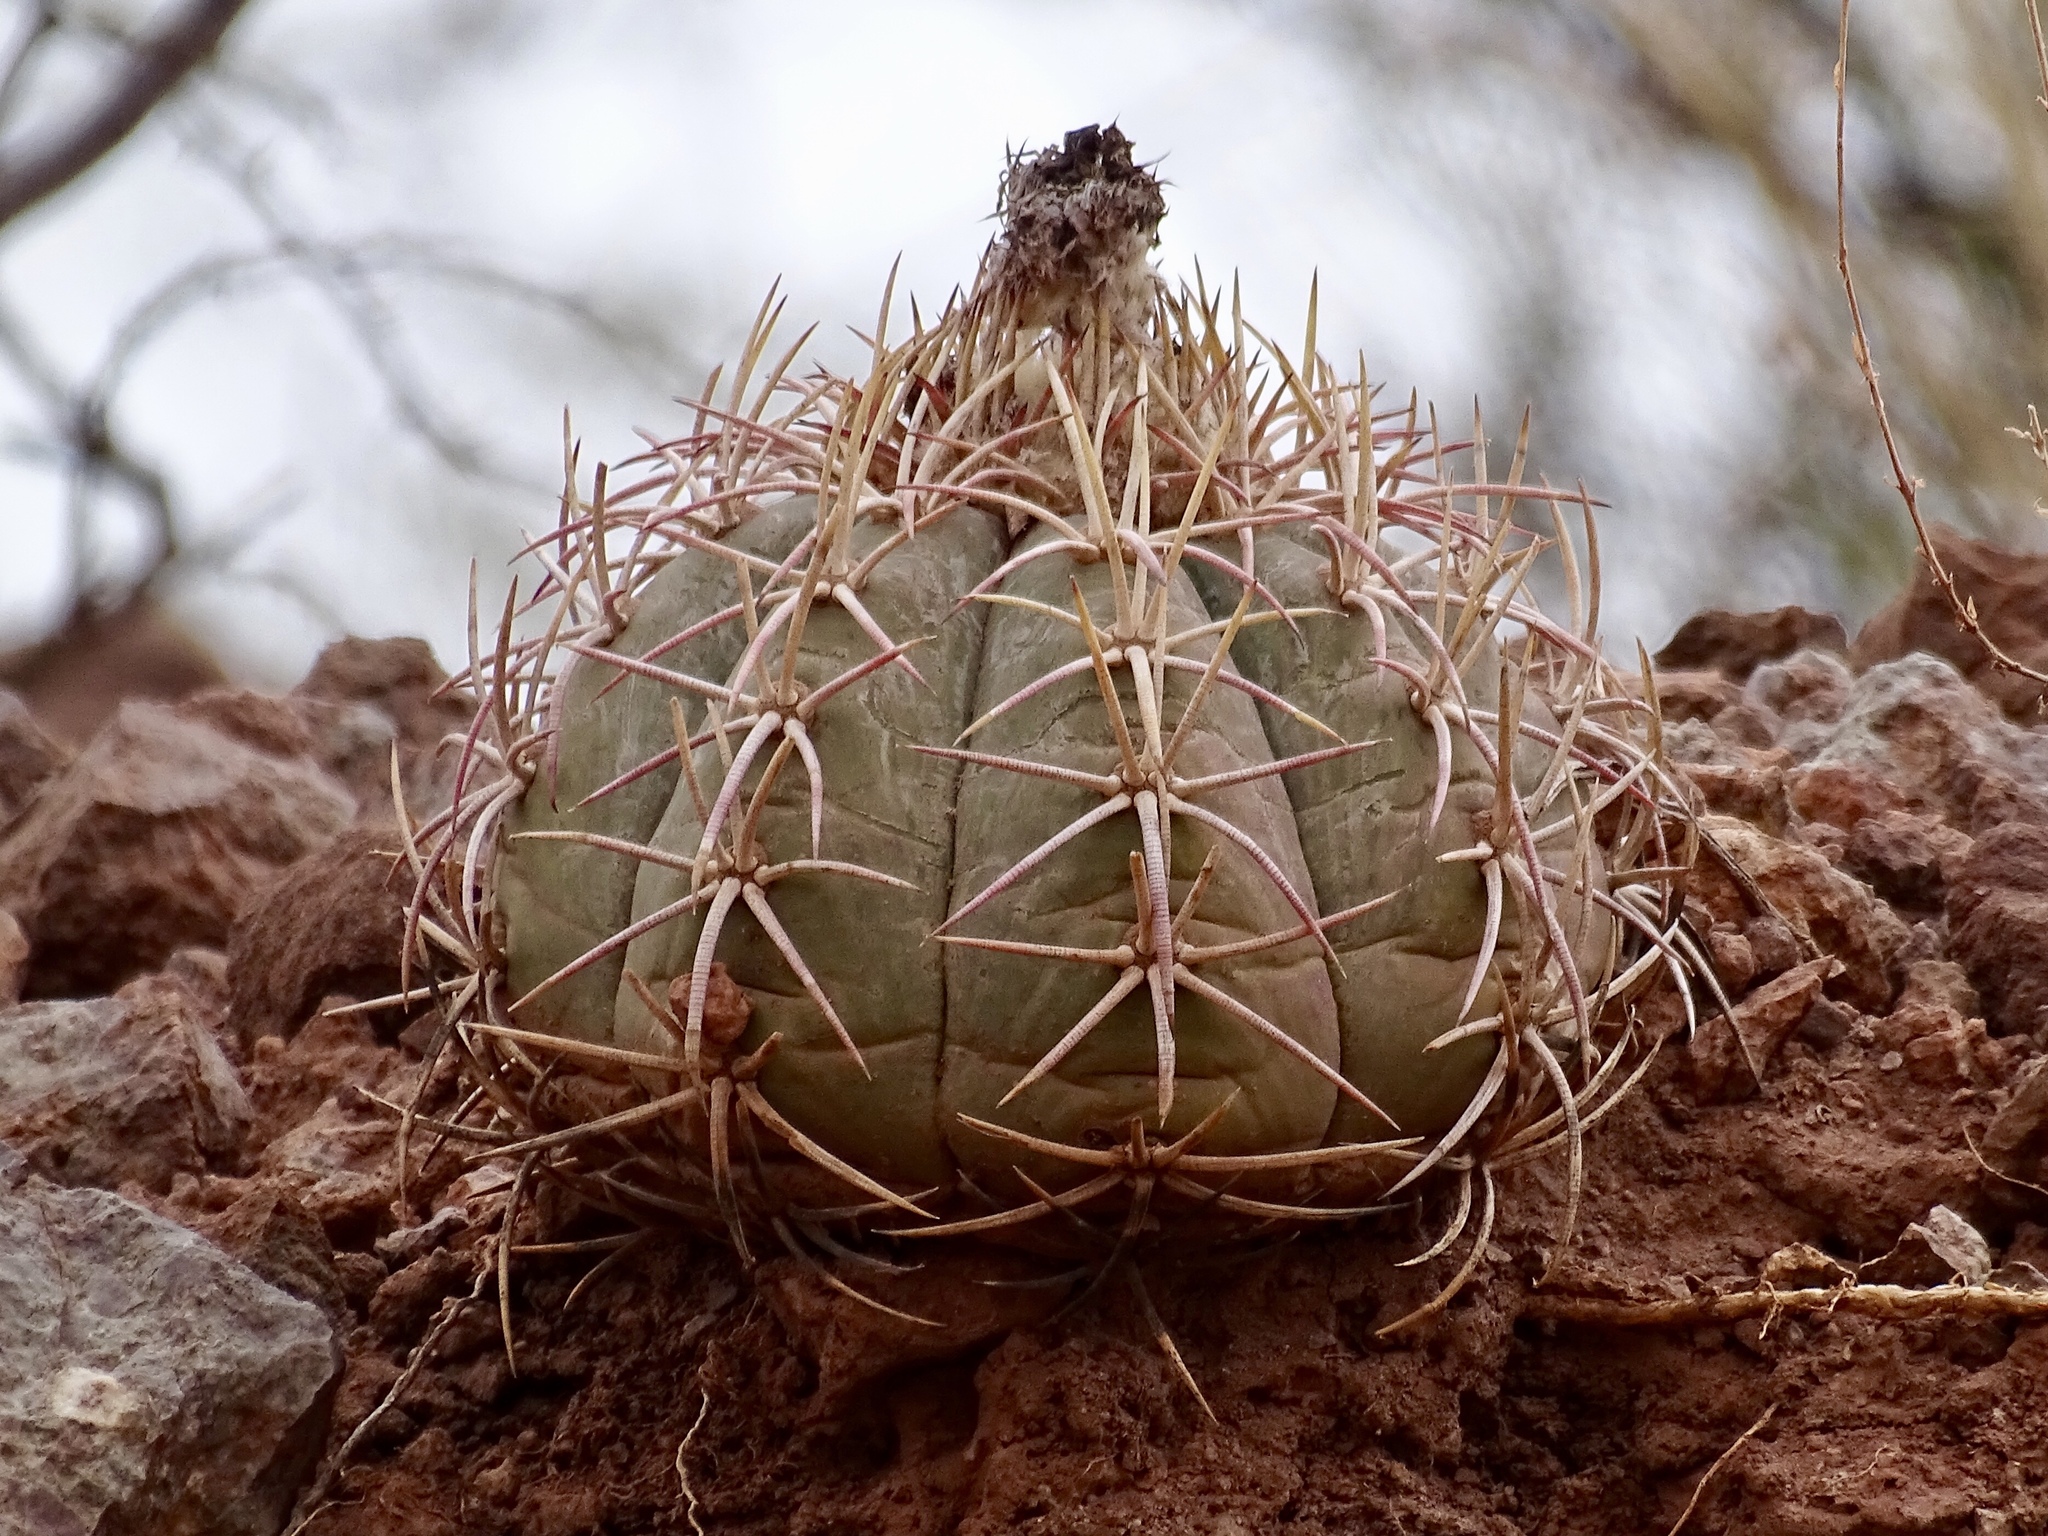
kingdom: Plantae
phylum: Tracheophyta
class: Magnoliopsida
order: Caryophyllales
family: Cactaceae
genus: Echinocactus
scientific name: Echinocactus horizonthalonius
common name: Devilshead
